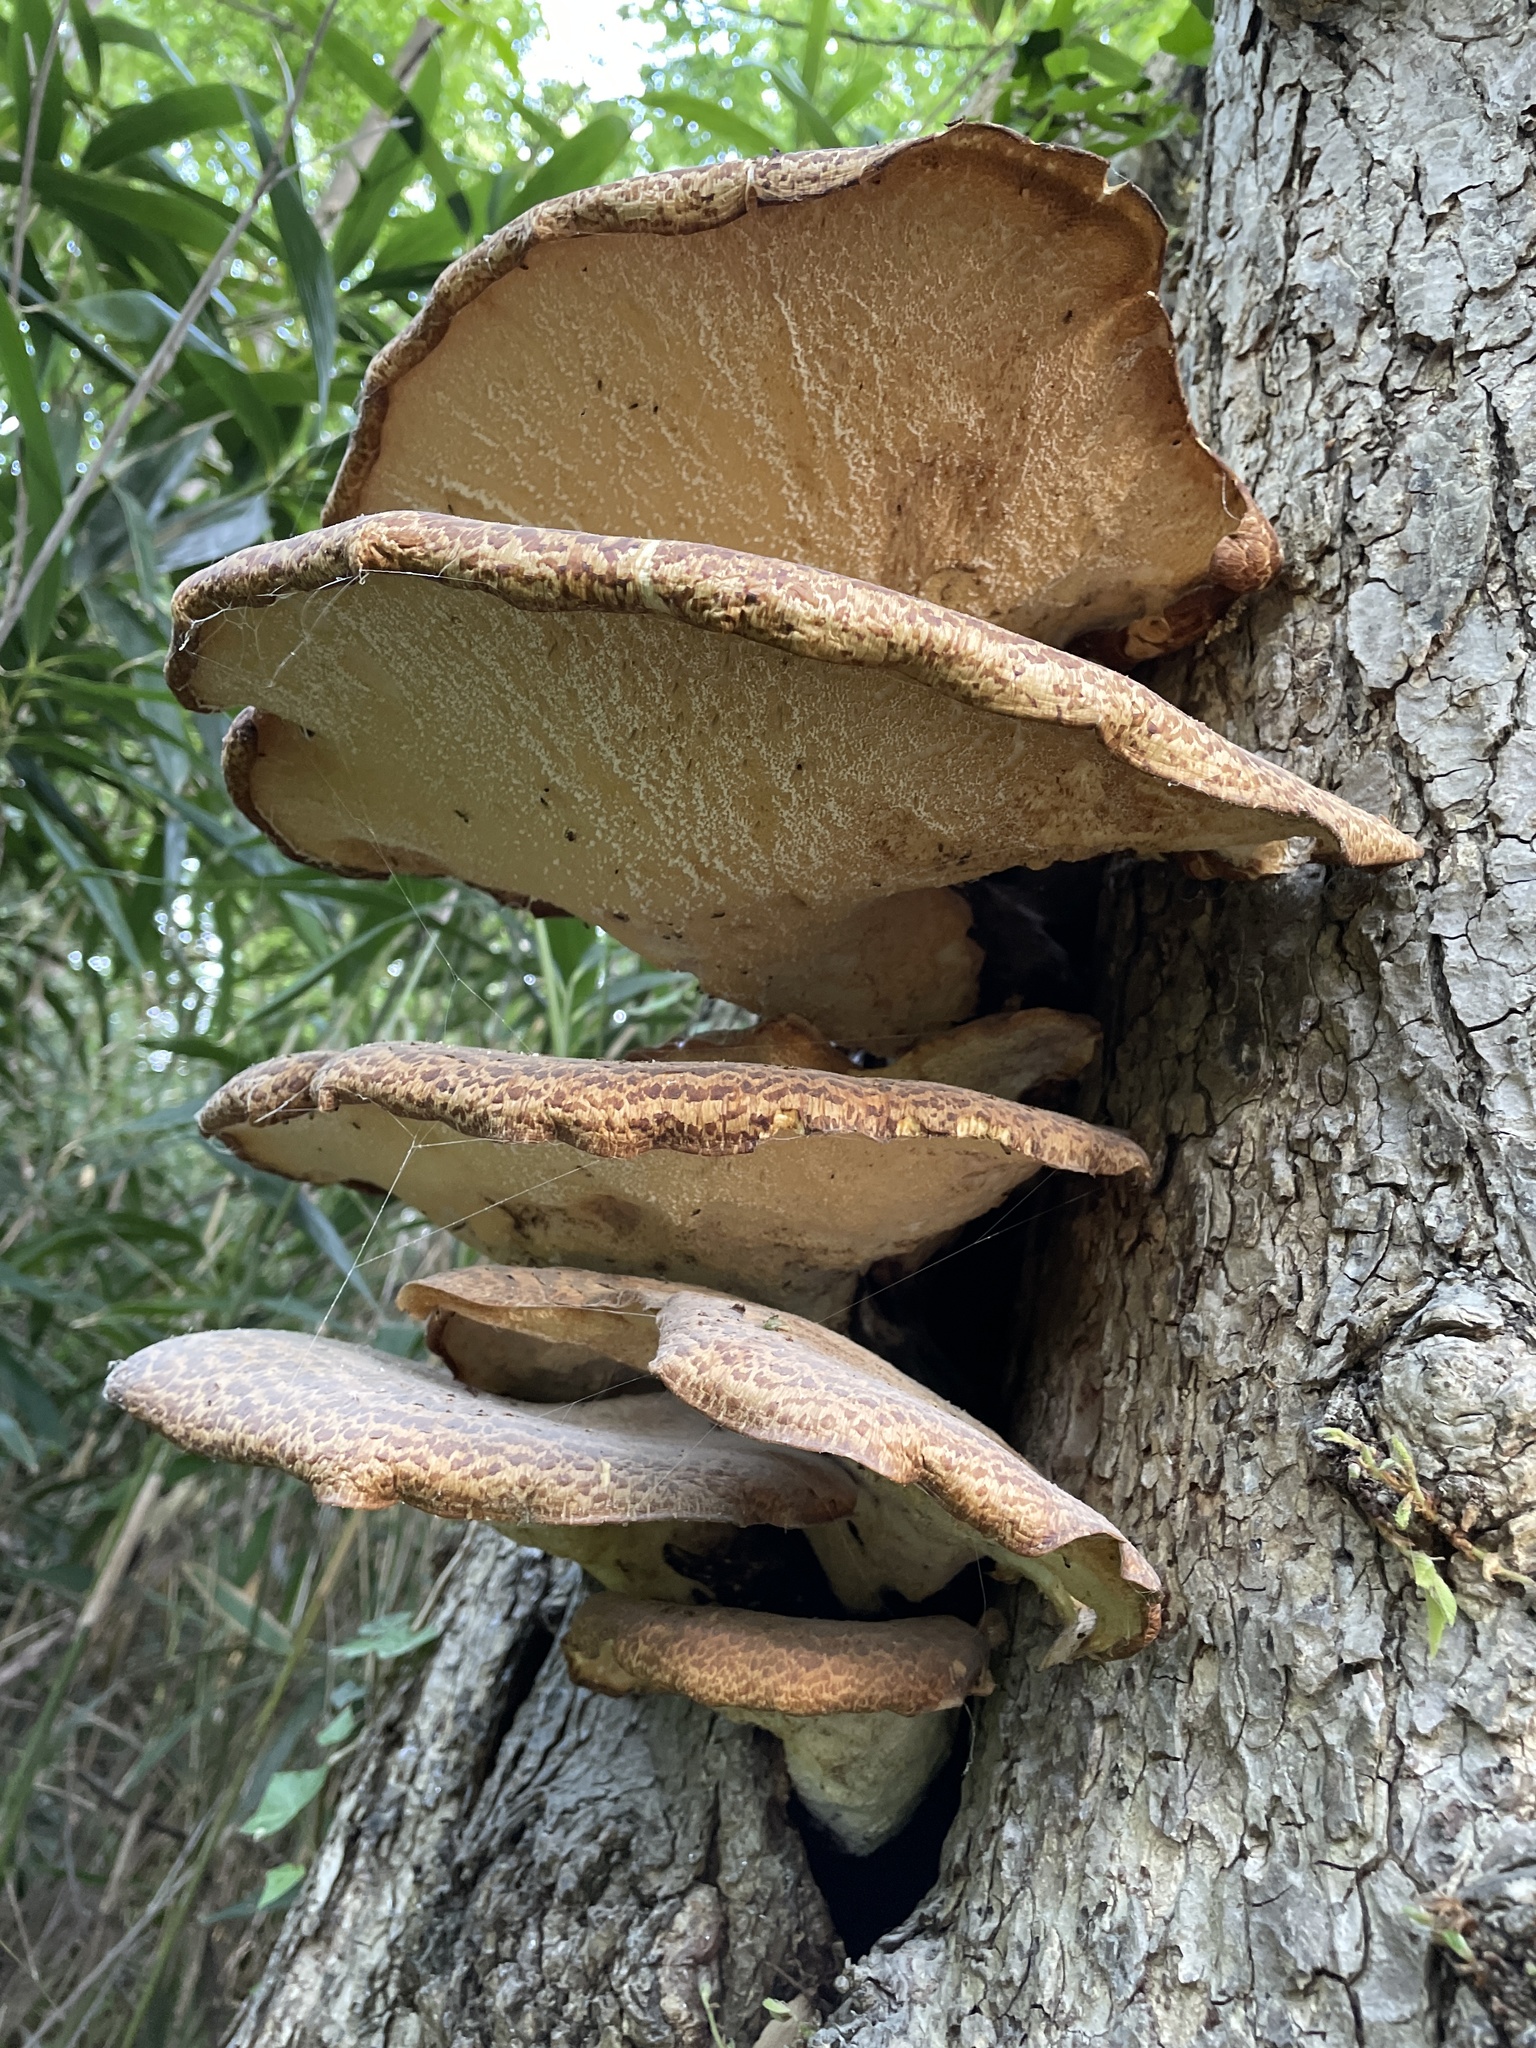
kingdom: Fungi
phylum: Basidiomycota
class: Agaricomycetes
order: Polyporales
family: Polyporaceae
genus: Cerioporus
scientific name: Cerioporus squamosus
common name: Dryad's saddle
